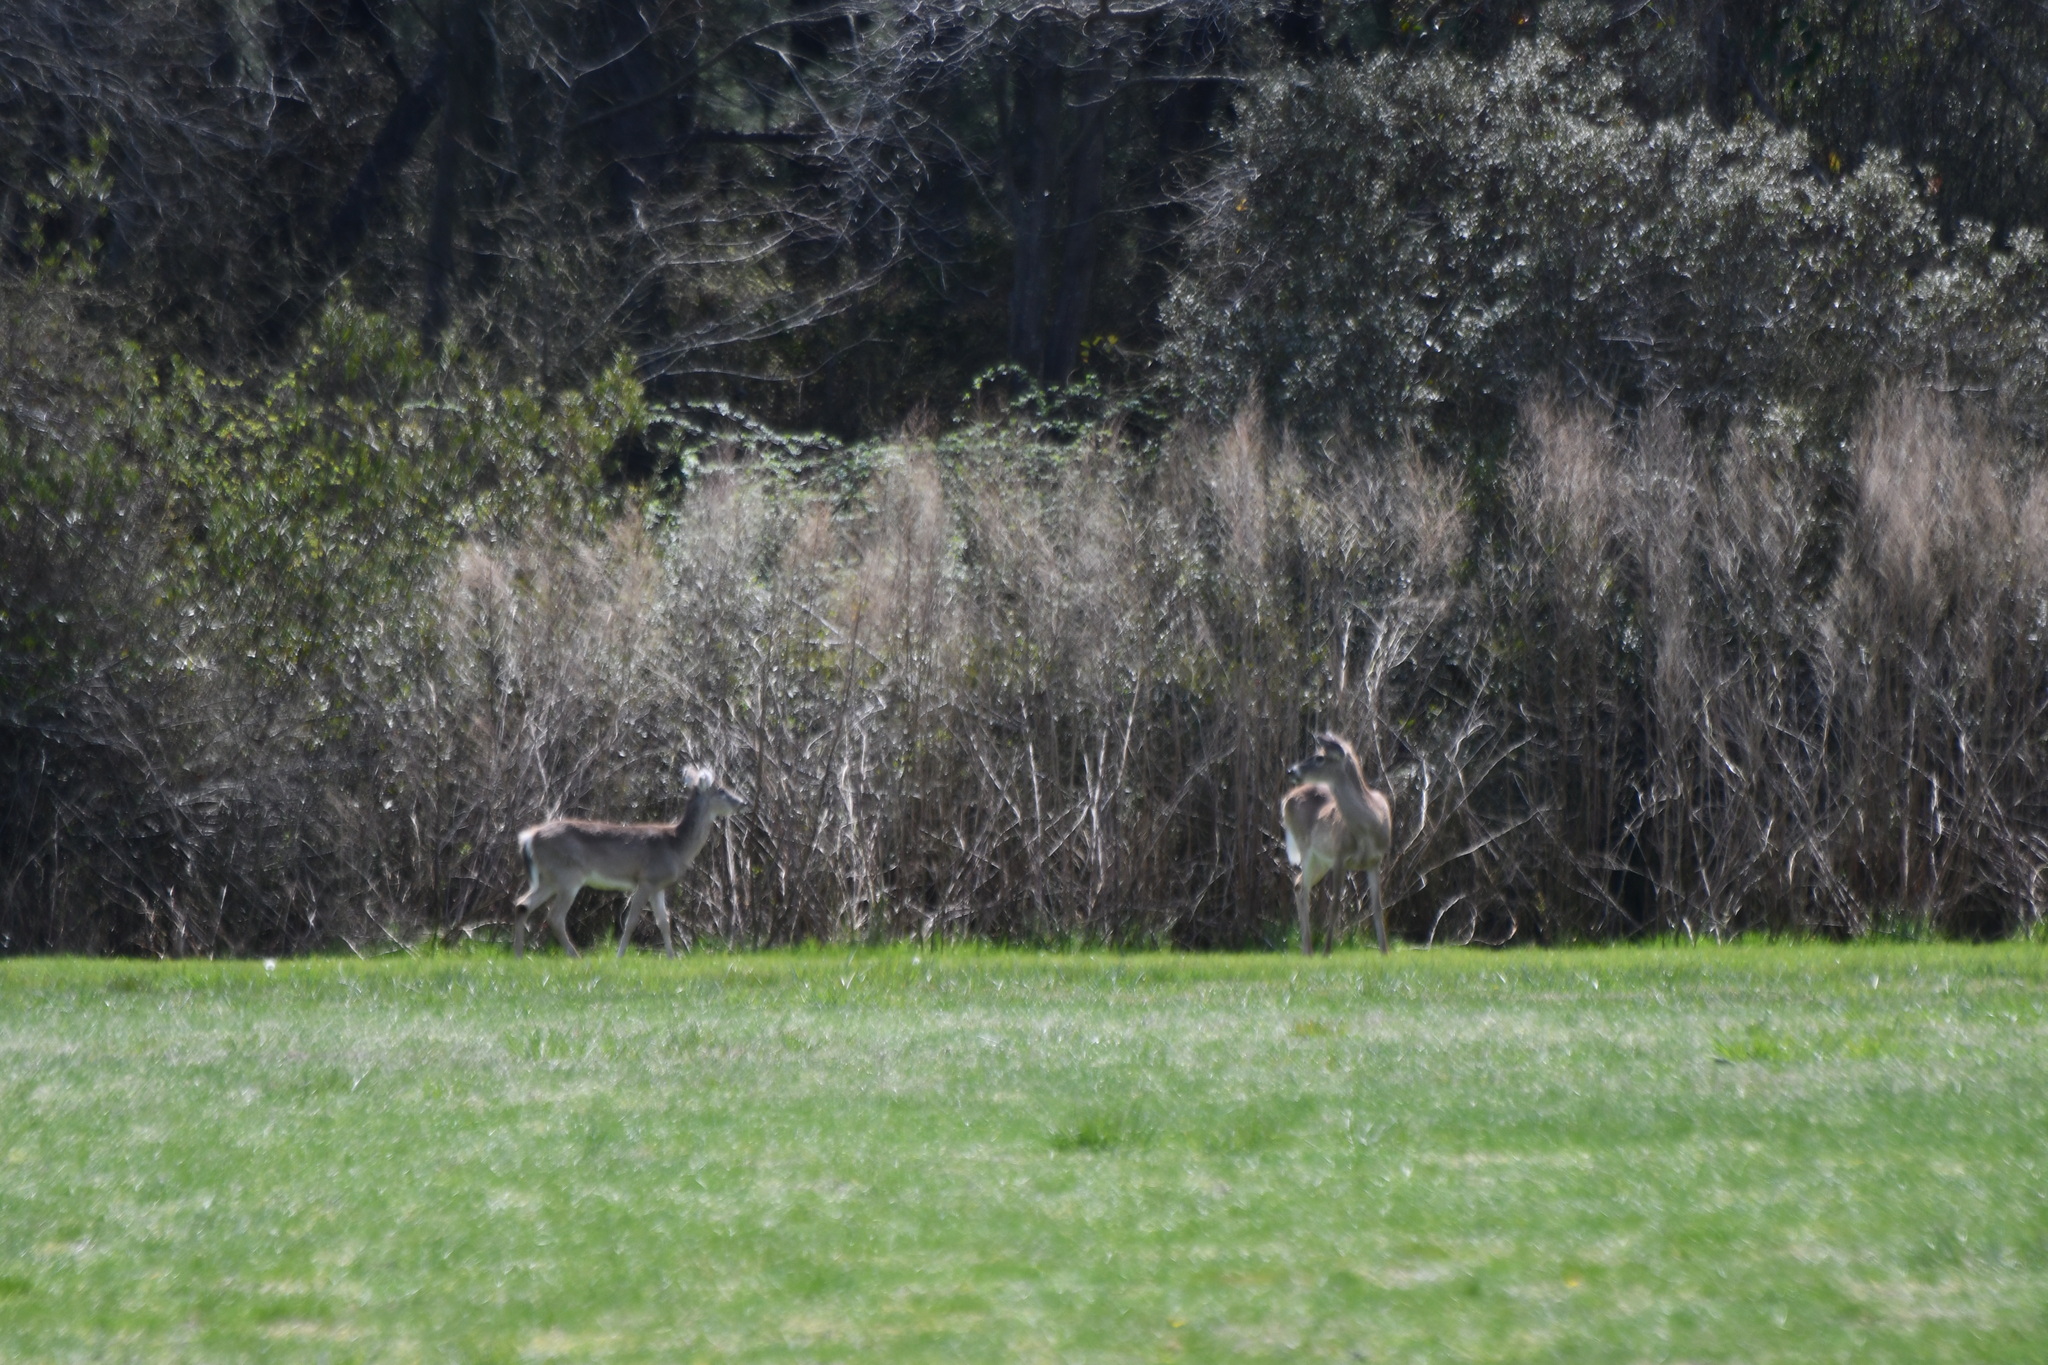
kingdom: Animalia
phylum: Chordata
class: Mammalia
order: Artiodactyla
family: Cervidae
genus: Odocoileus
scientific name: Odocoileus virginianus
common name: White-tailed deer
